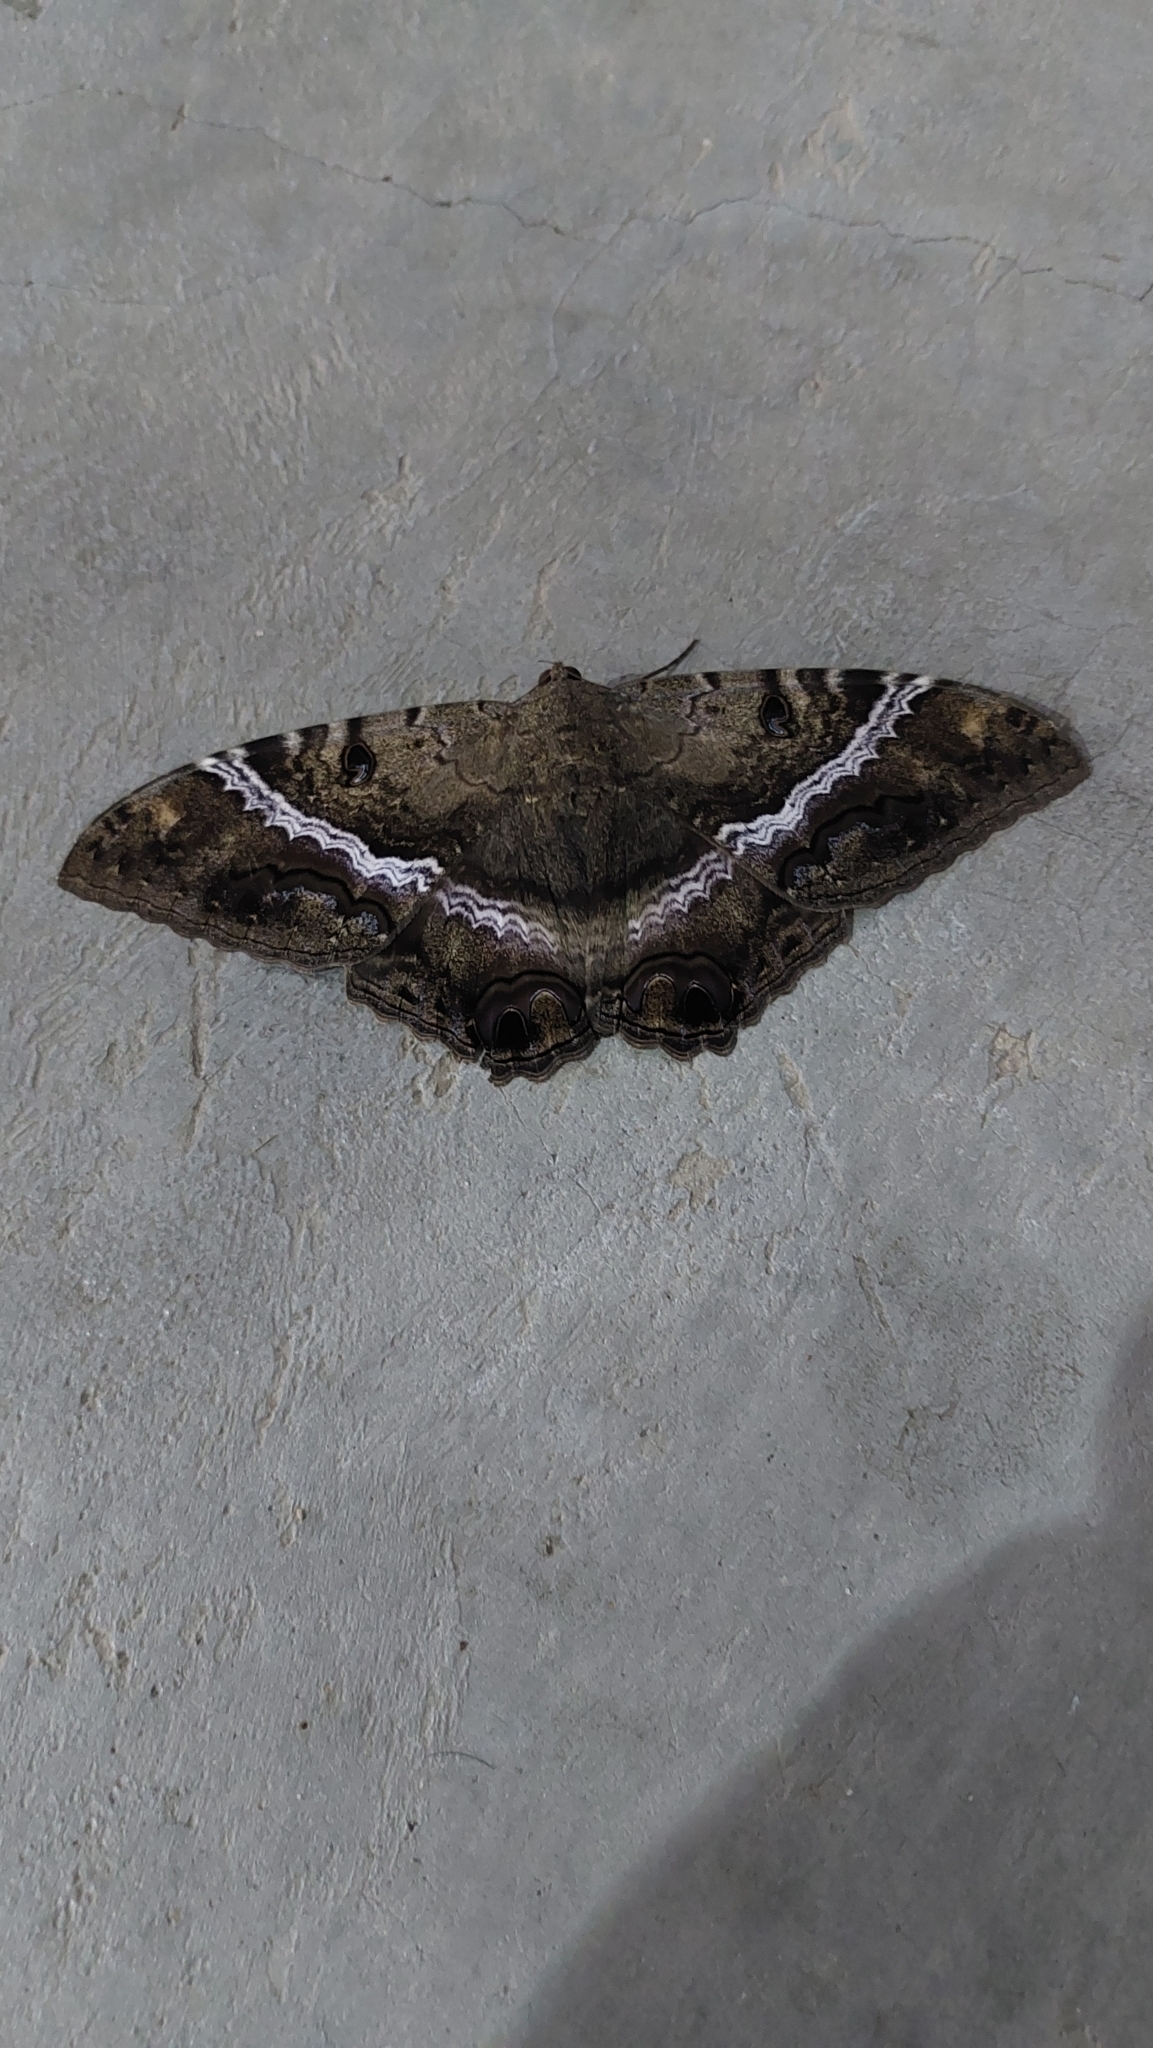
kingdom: Animalia
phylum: Arthropoda
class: Insecta
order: Lepidoptera
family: Erebidae
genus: Ascalapha
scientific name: Ascalapha odorata
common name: Black witch
